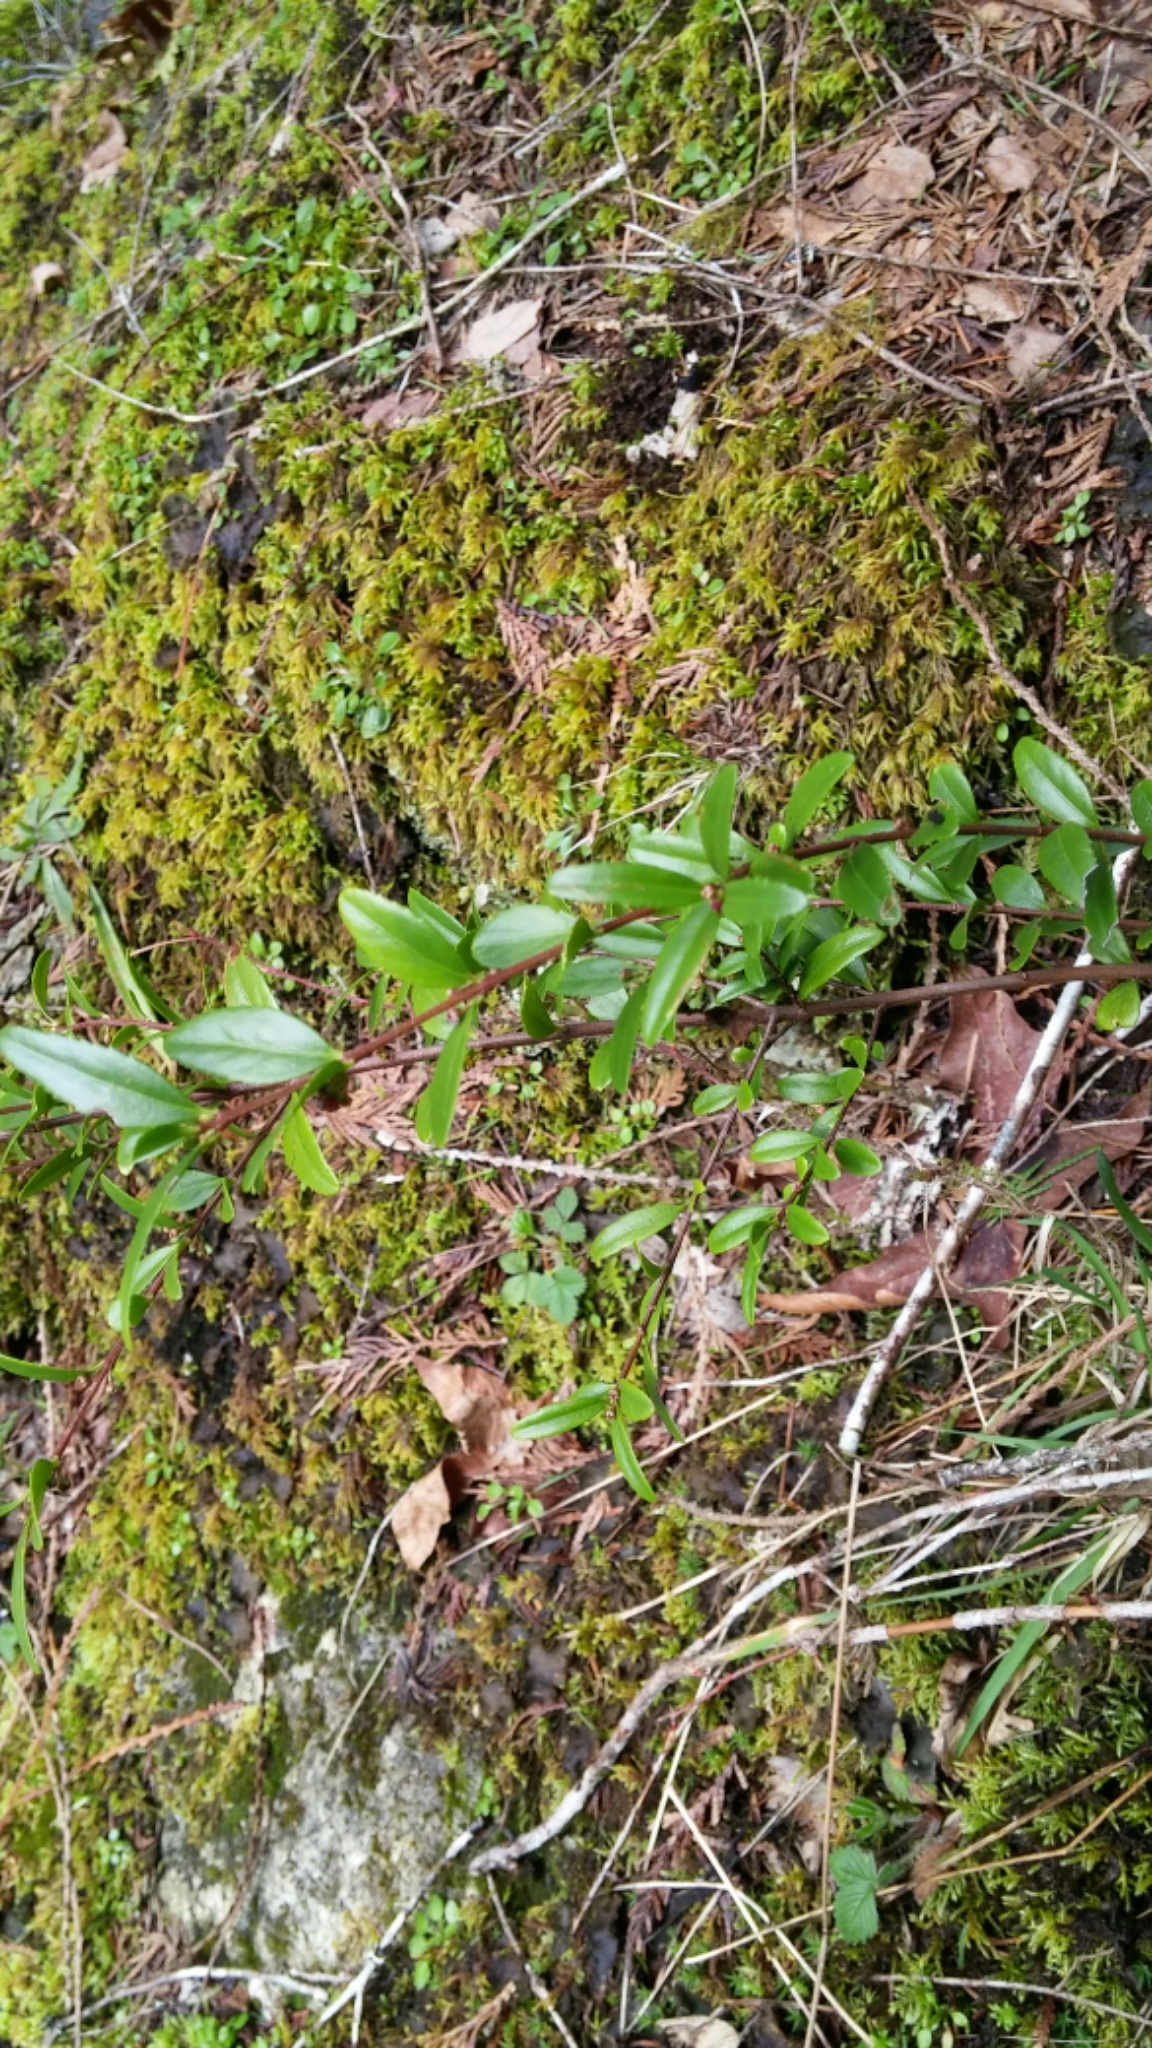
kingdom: Plantae
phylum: Tracheophyta
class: Magnoliopsida
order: Celastrales
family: Celastraceae
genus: Paxistima
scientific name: Paxistima myrsinites
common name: Mountain-lover
